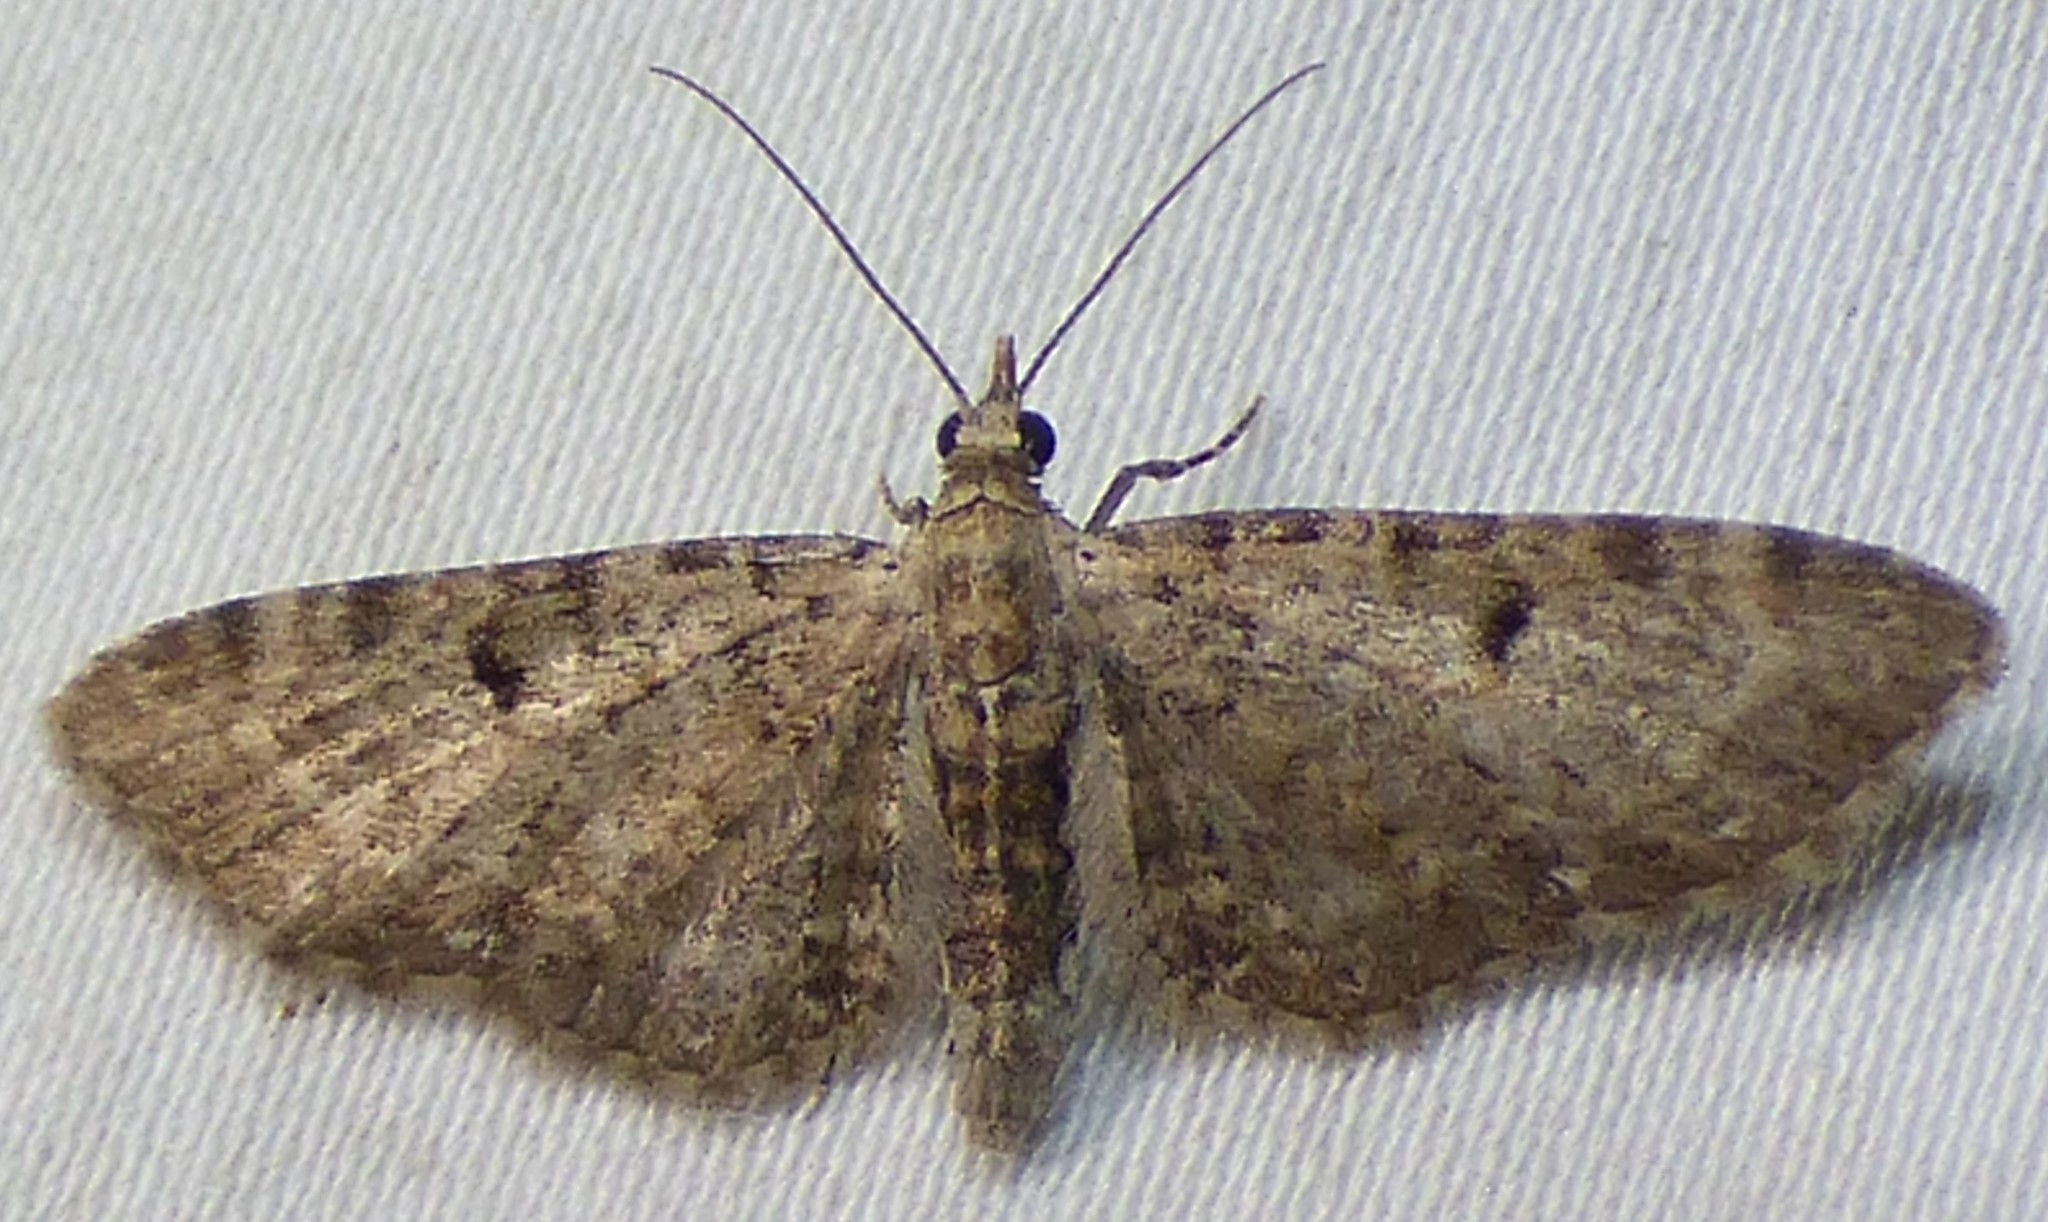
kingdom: Animalia
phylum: Arthropoda
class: Insecta
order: Lepidoptera
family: Geometridae
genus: Eupithecia
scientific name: Eupithecia miserulata
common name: Common eupithecia
